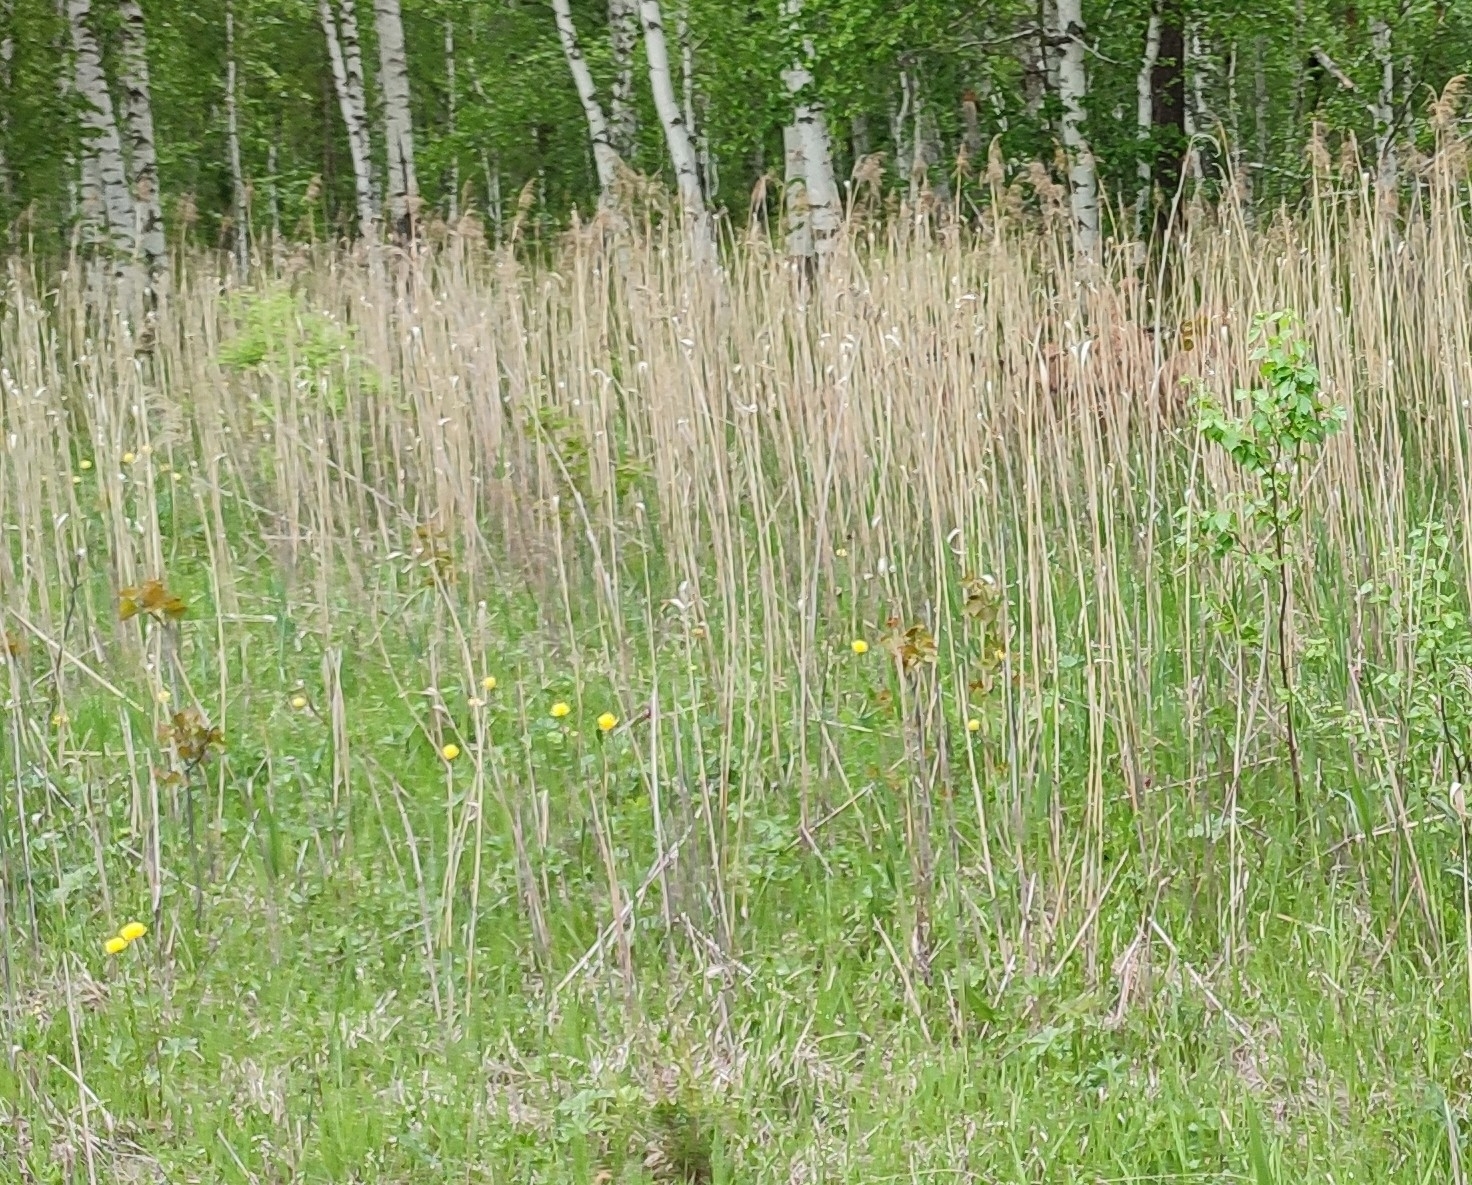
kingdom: Plantae
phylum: Tracheophyta
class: Liliopsida
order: Poales
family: Poaceae
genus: Phragmites
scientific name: Phragmites australis
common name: Common reed
